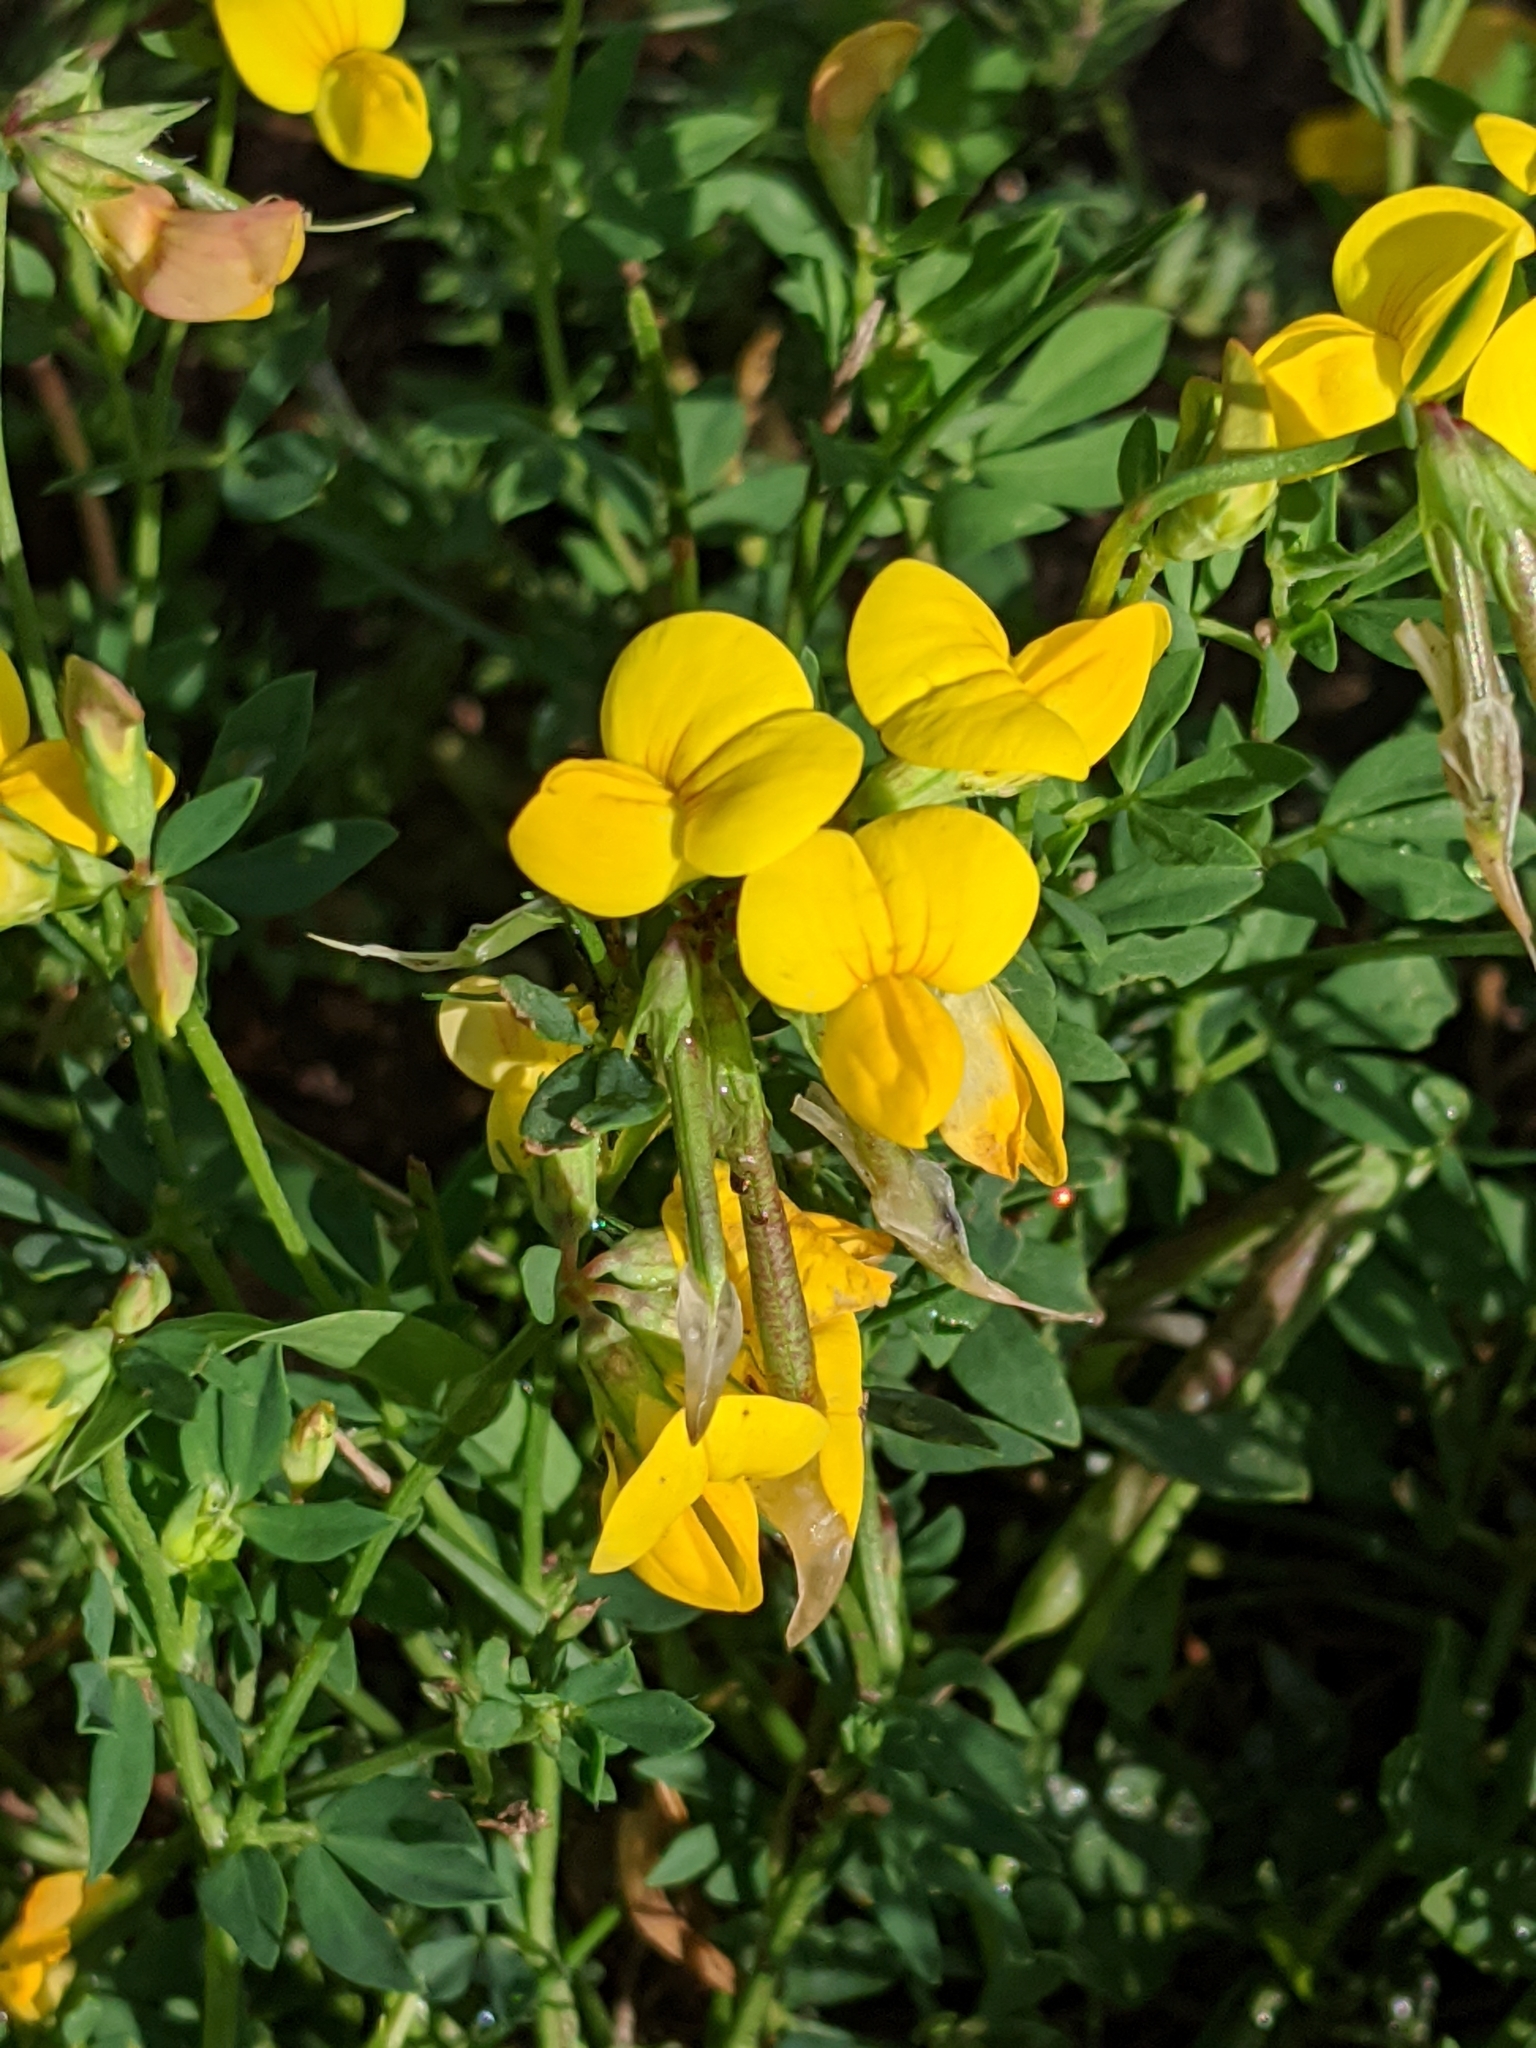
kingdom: Plantae
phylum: Tracheophyta
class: Magnoliopsida
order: Fabales
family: Fabaceae
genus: Lotus
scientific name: Lotus corniculatus
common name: Common bird's-foot-trefoil
